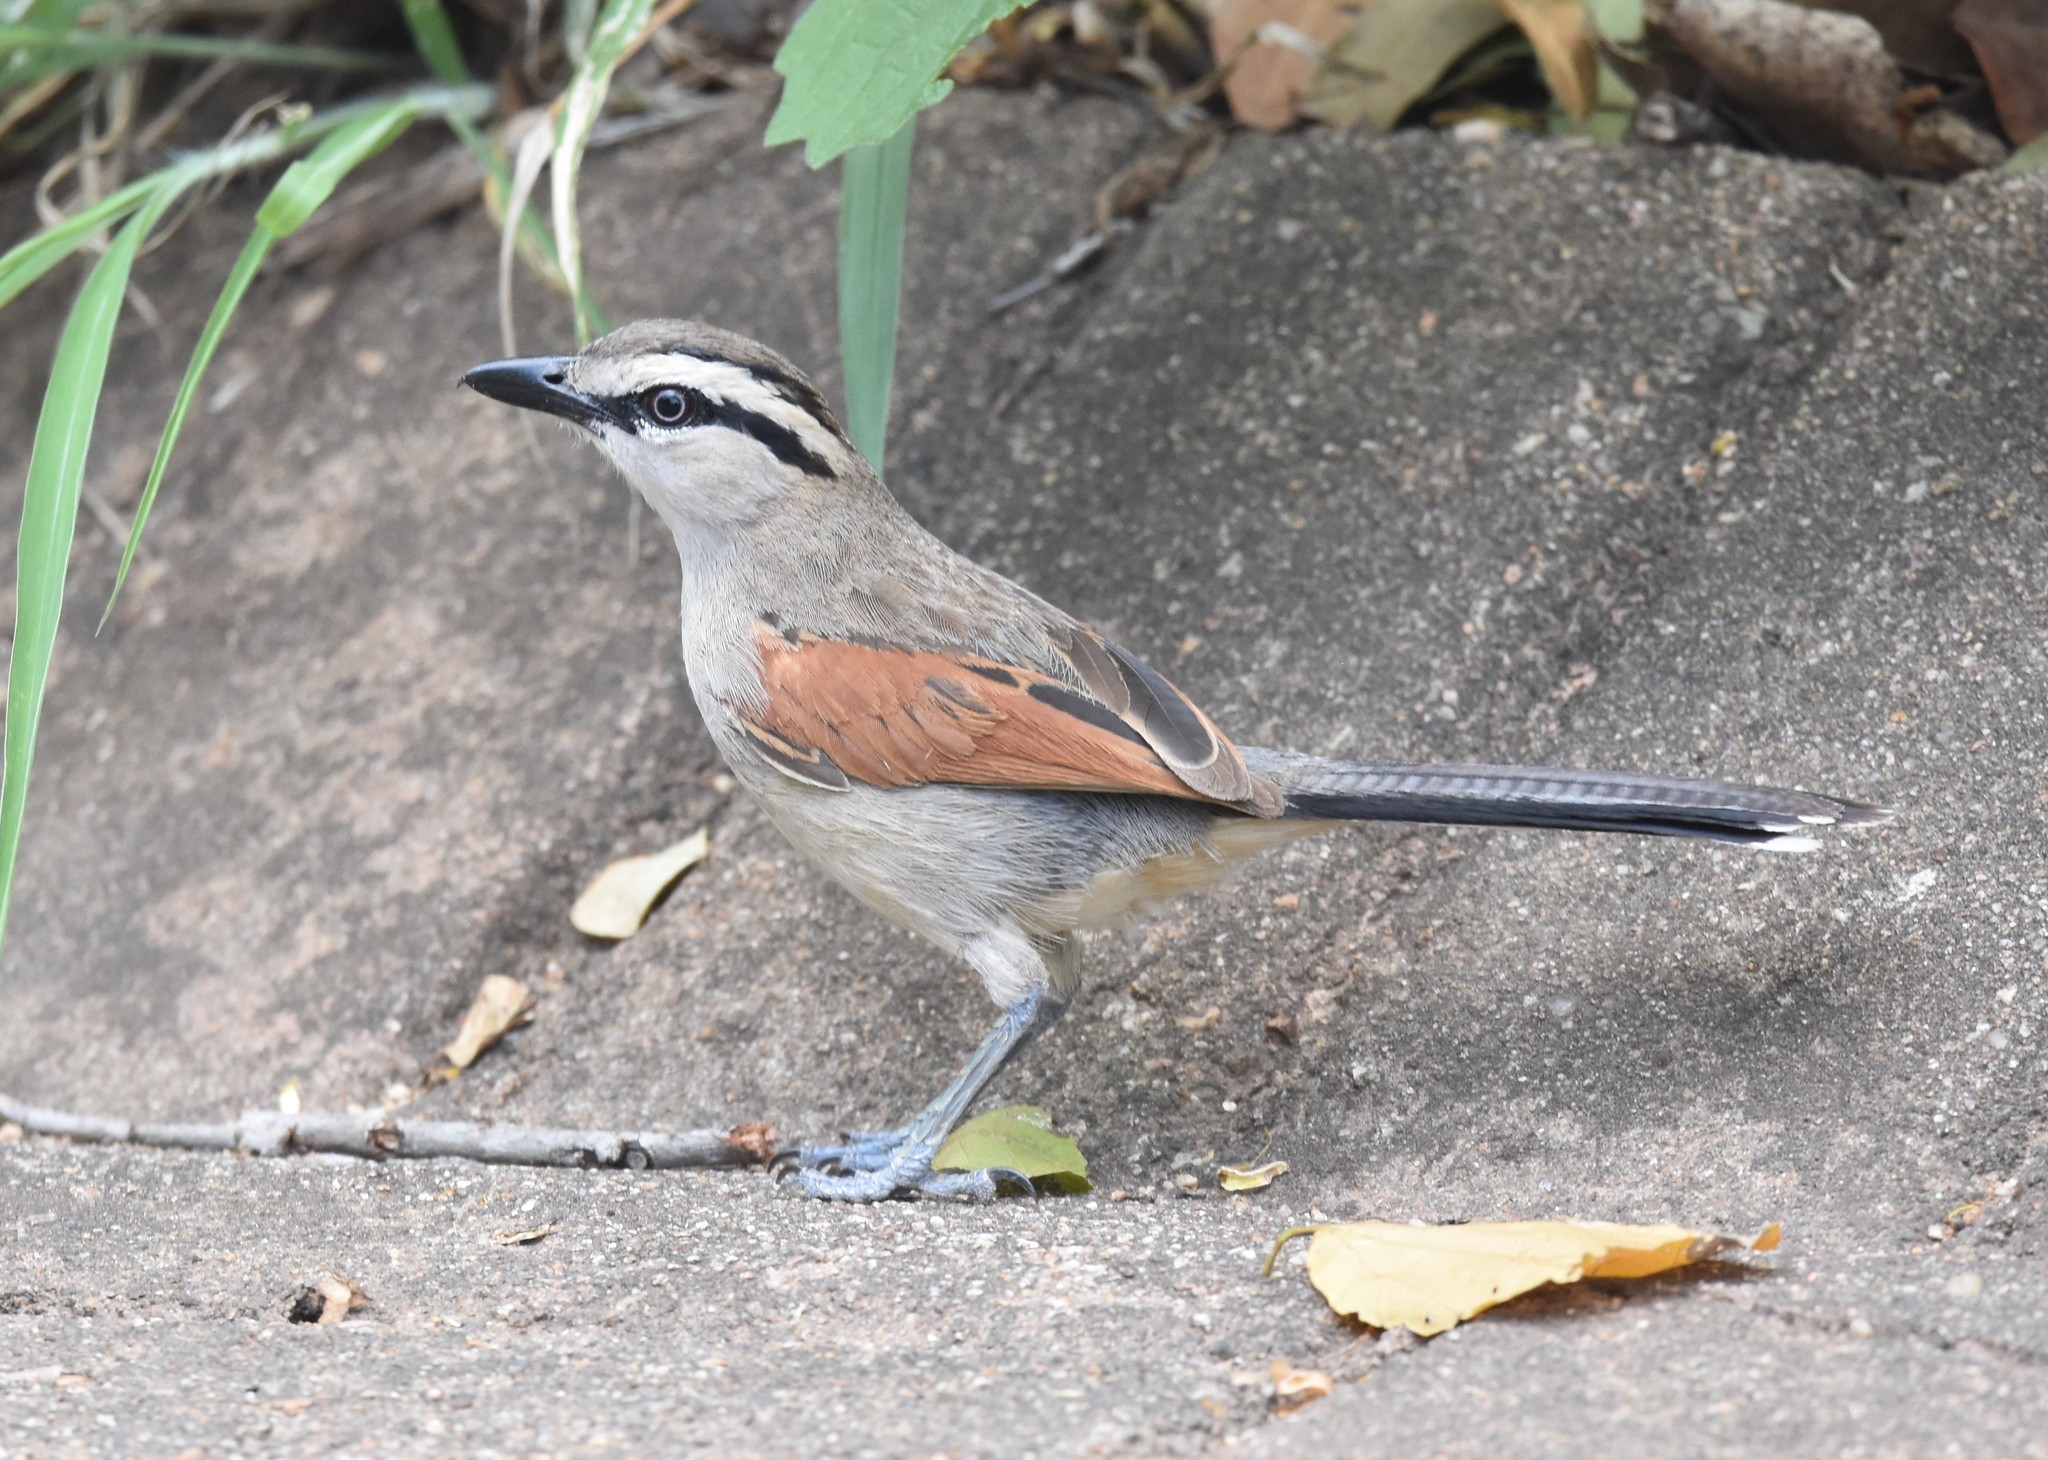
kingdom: Animalia
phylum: Chordata
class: Aves
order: Passeriformes
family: Malaconotidae
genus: Tchagra
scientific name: Tchagra australis
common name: Brown-crowned tchagra
